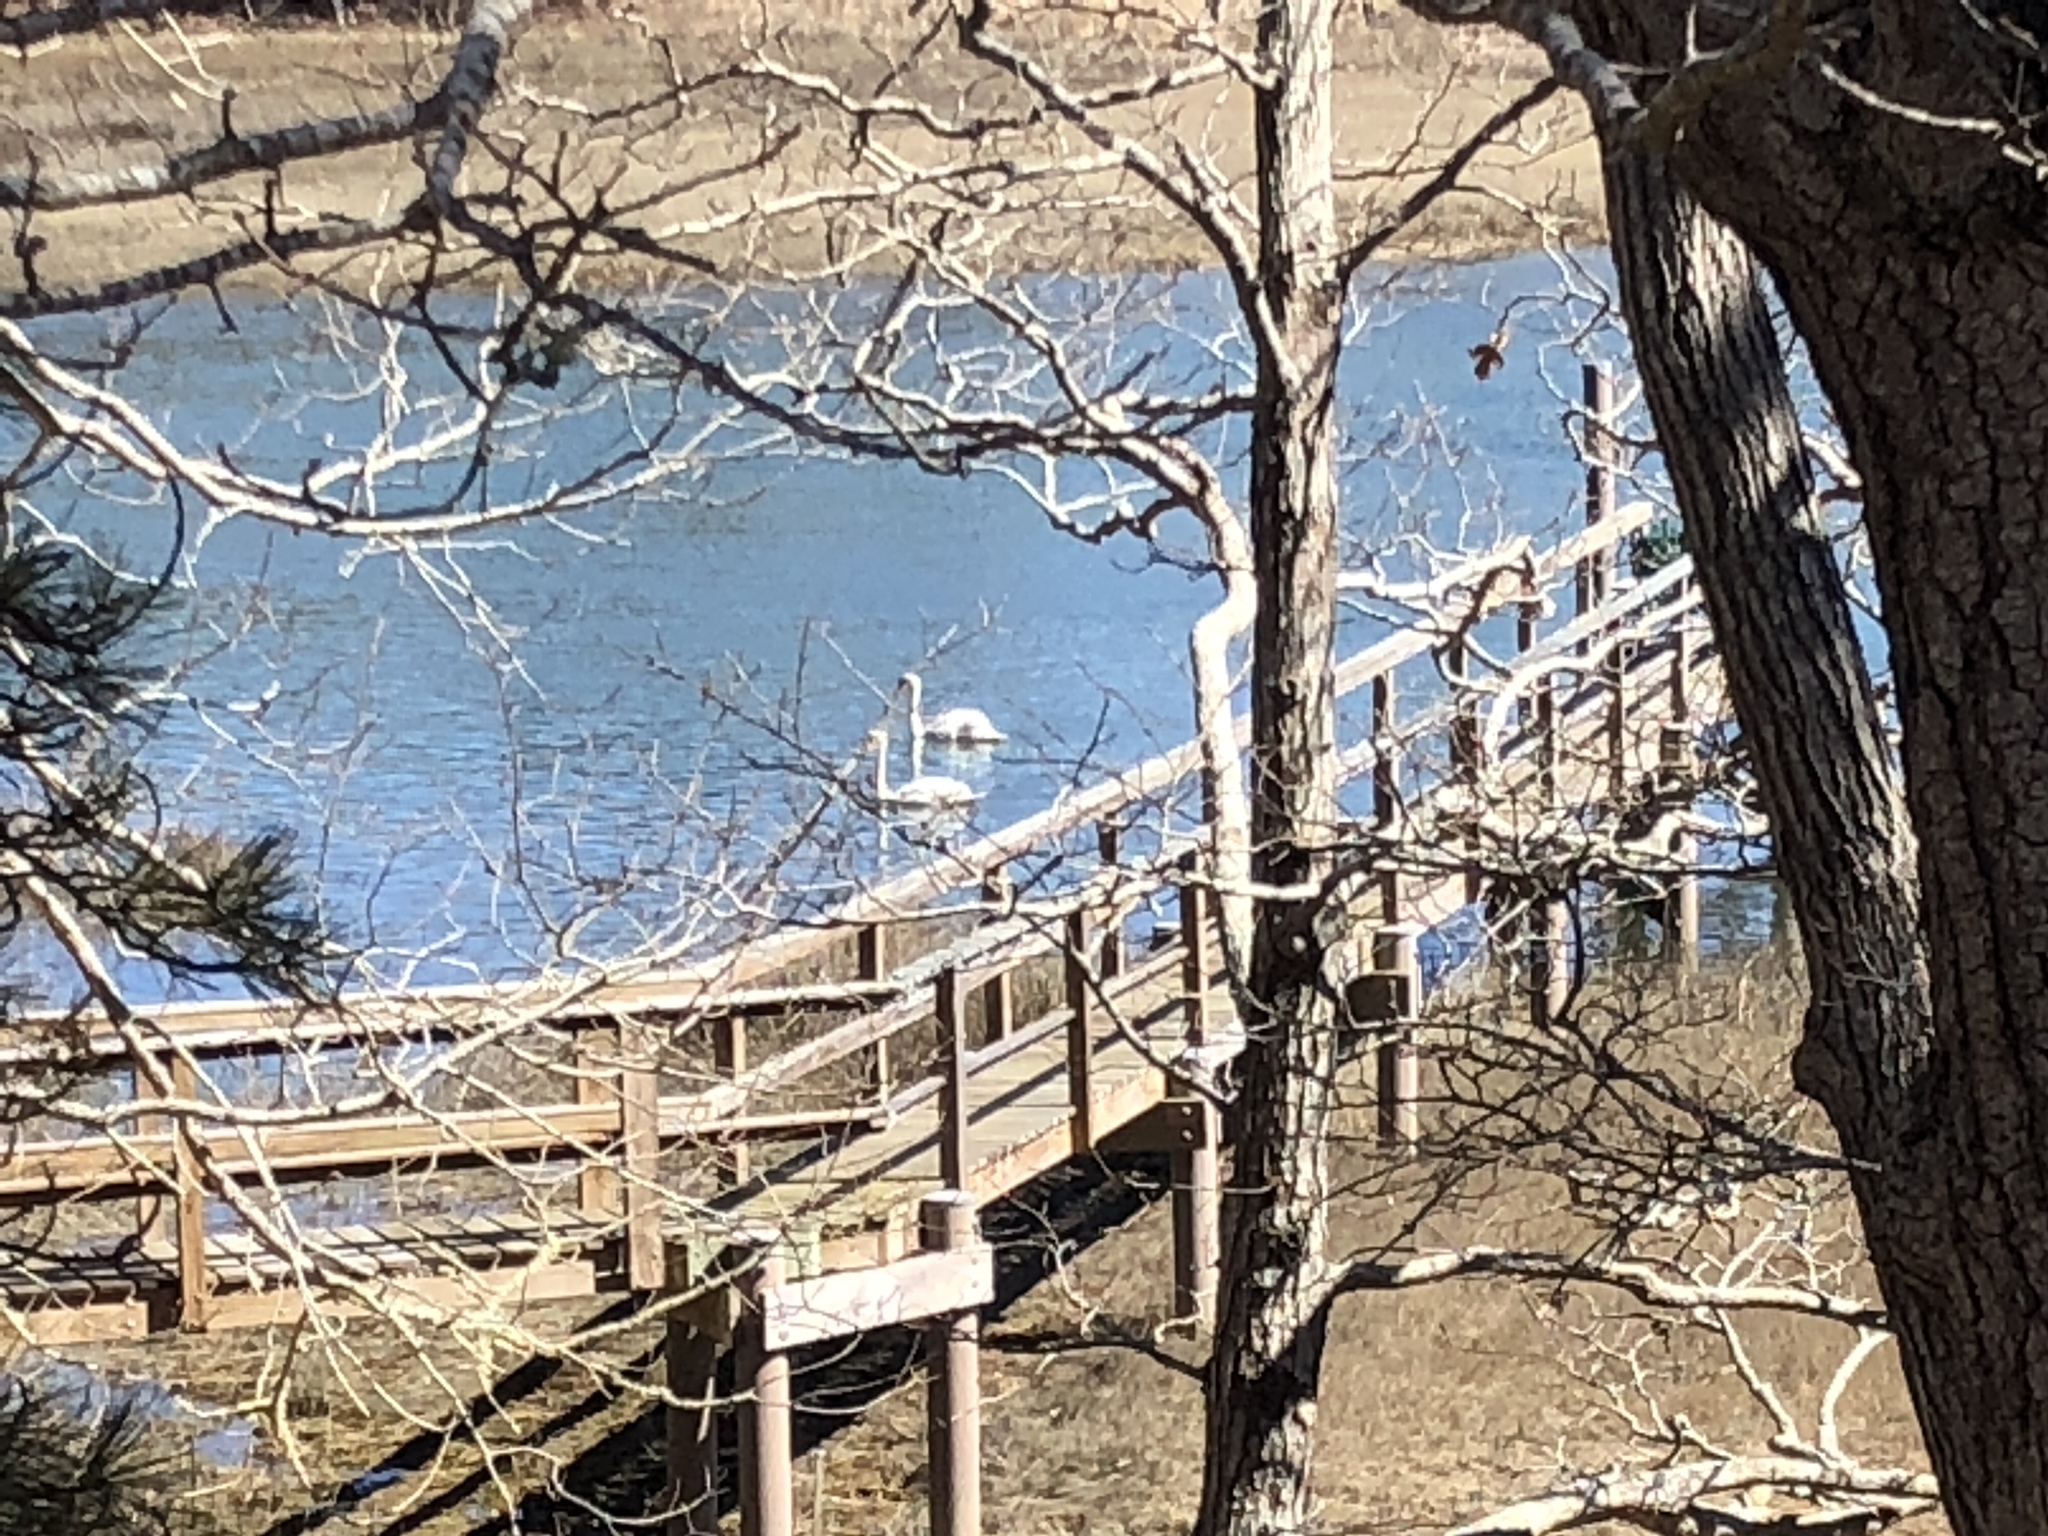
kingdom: Animalia
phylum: Chordata
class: Aves
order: Anseriformes
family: Anatidae
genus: Cygnus
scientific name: Cygnus olor
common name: Mute swan
